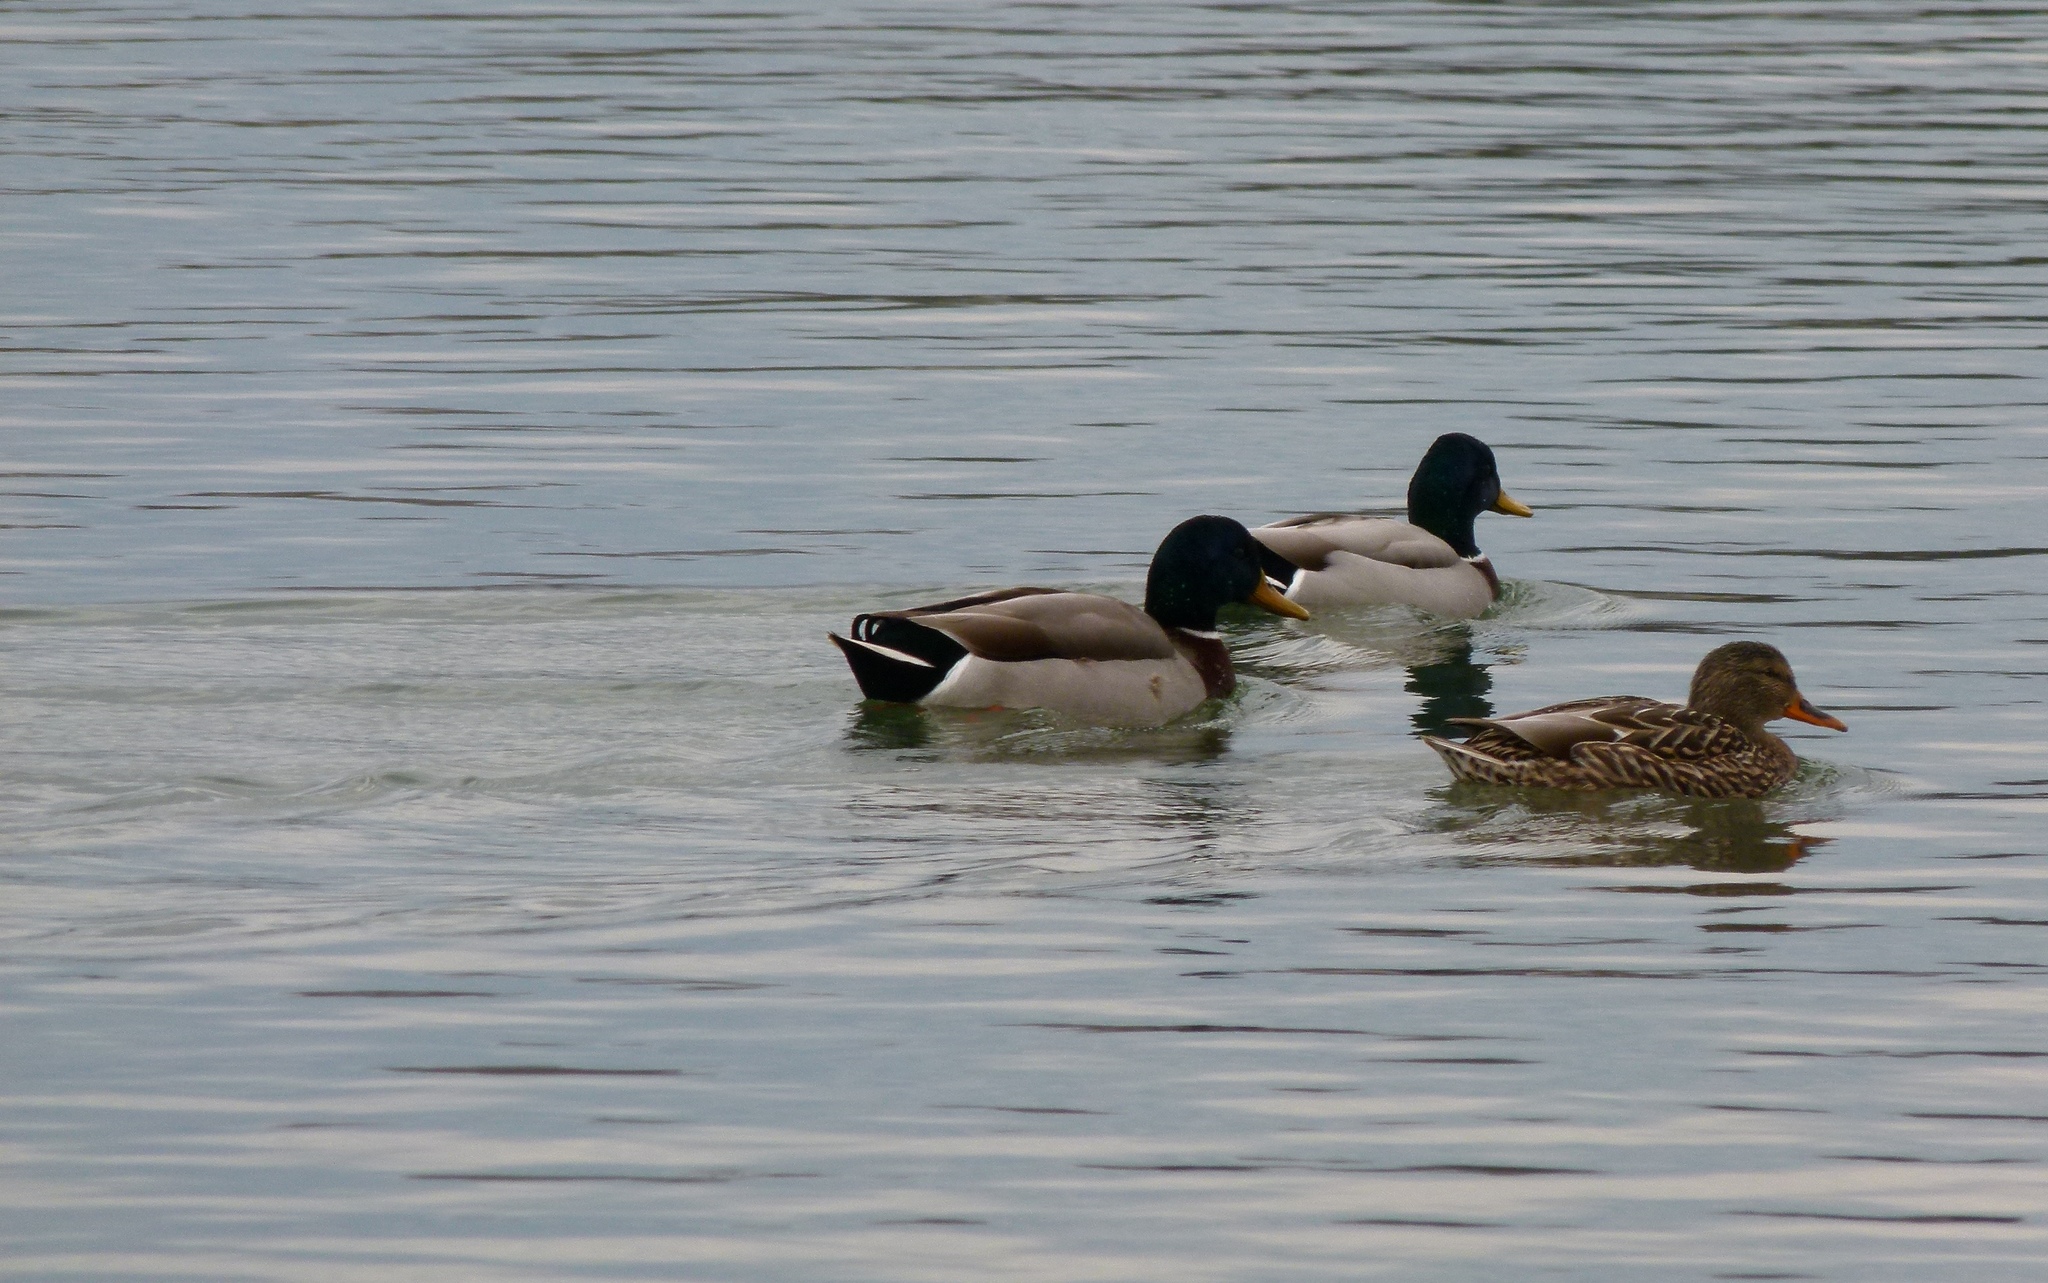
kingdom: Animalia
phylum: Chordata
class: Aves
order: Anseriformes
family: Anatidae
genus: Anas
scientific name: Anas platyrhynchos
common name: Mallard
